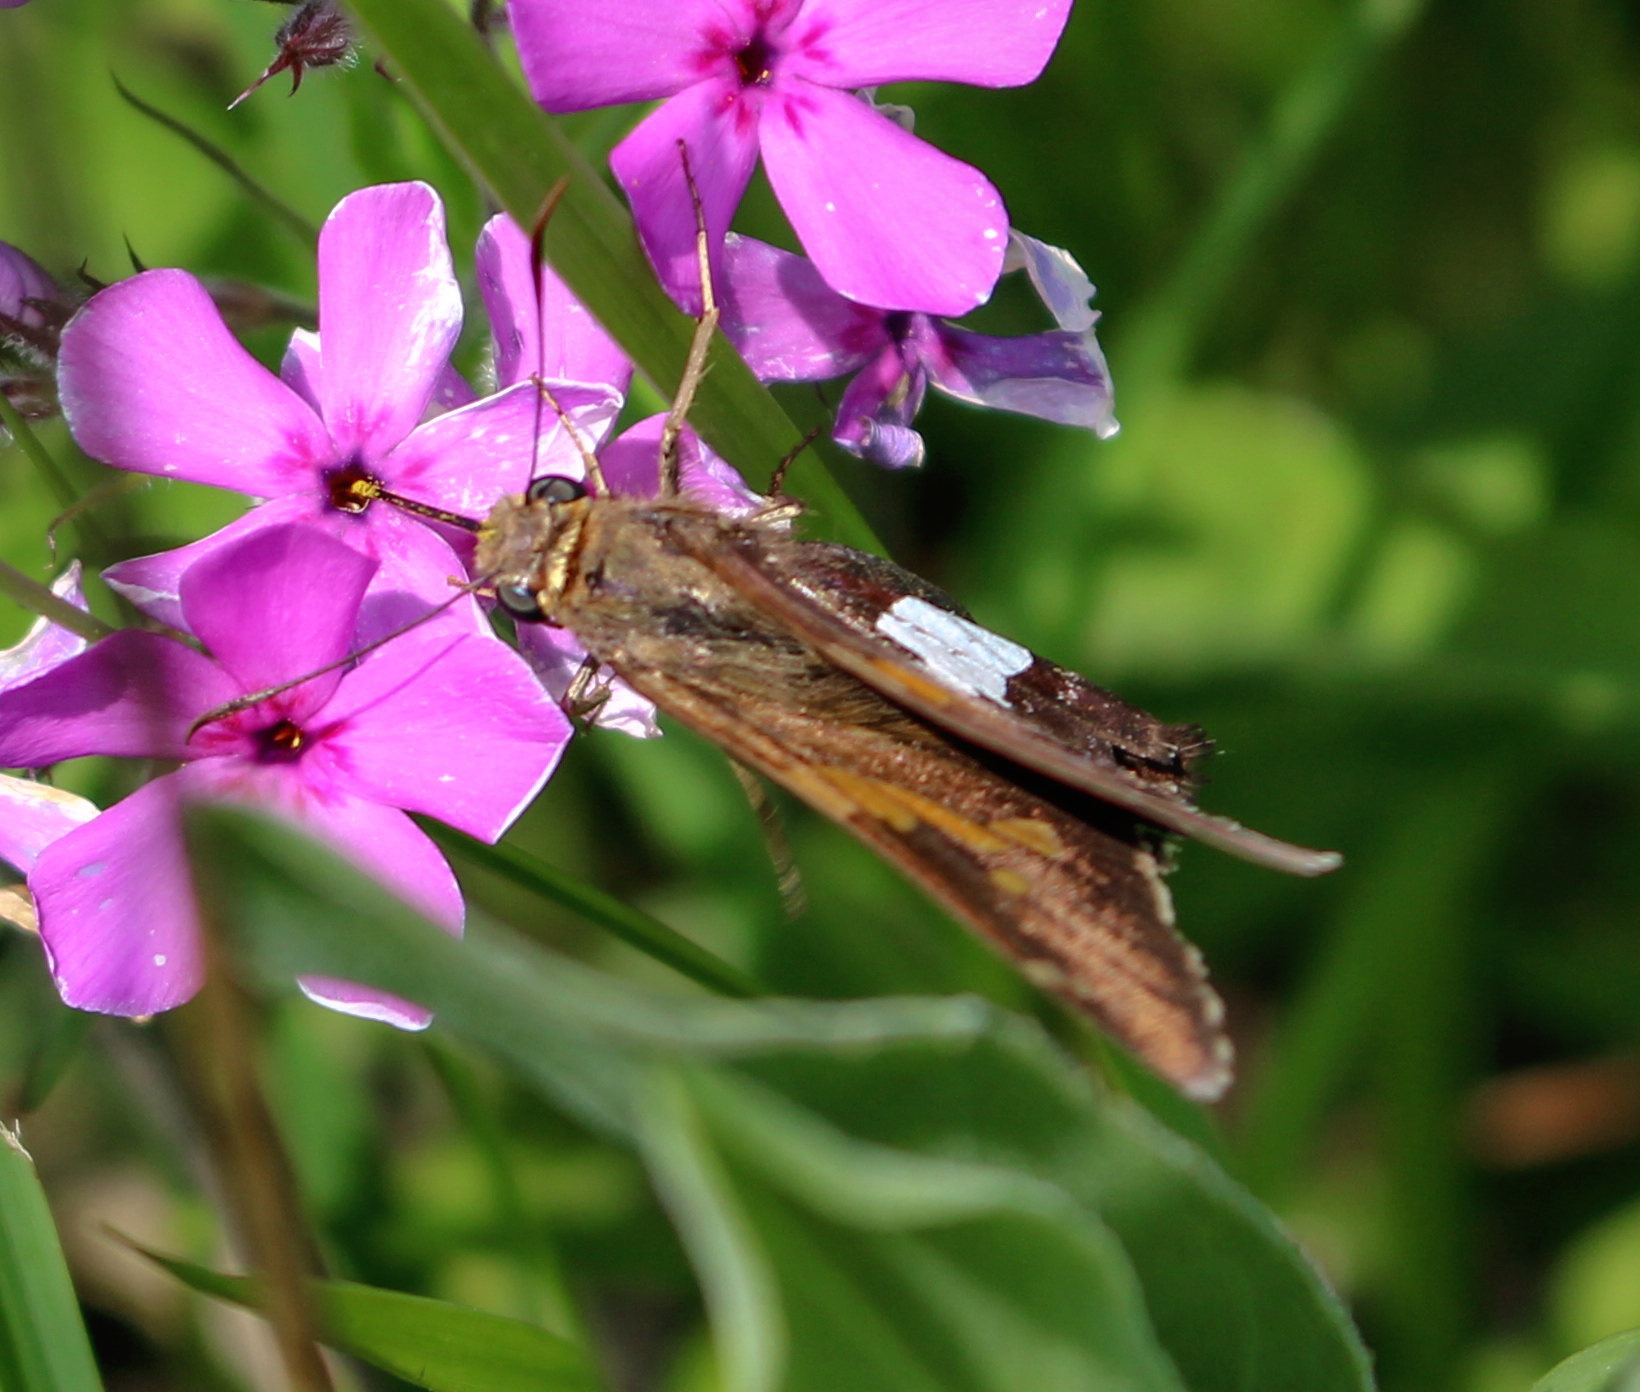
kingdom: Animalia
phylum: Arthropoda
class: Insecta
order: Lepidoptera
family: Hesperiidae
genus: Epargyreus
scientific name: Epargyreus clarus
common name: Silver-spotted skipper
